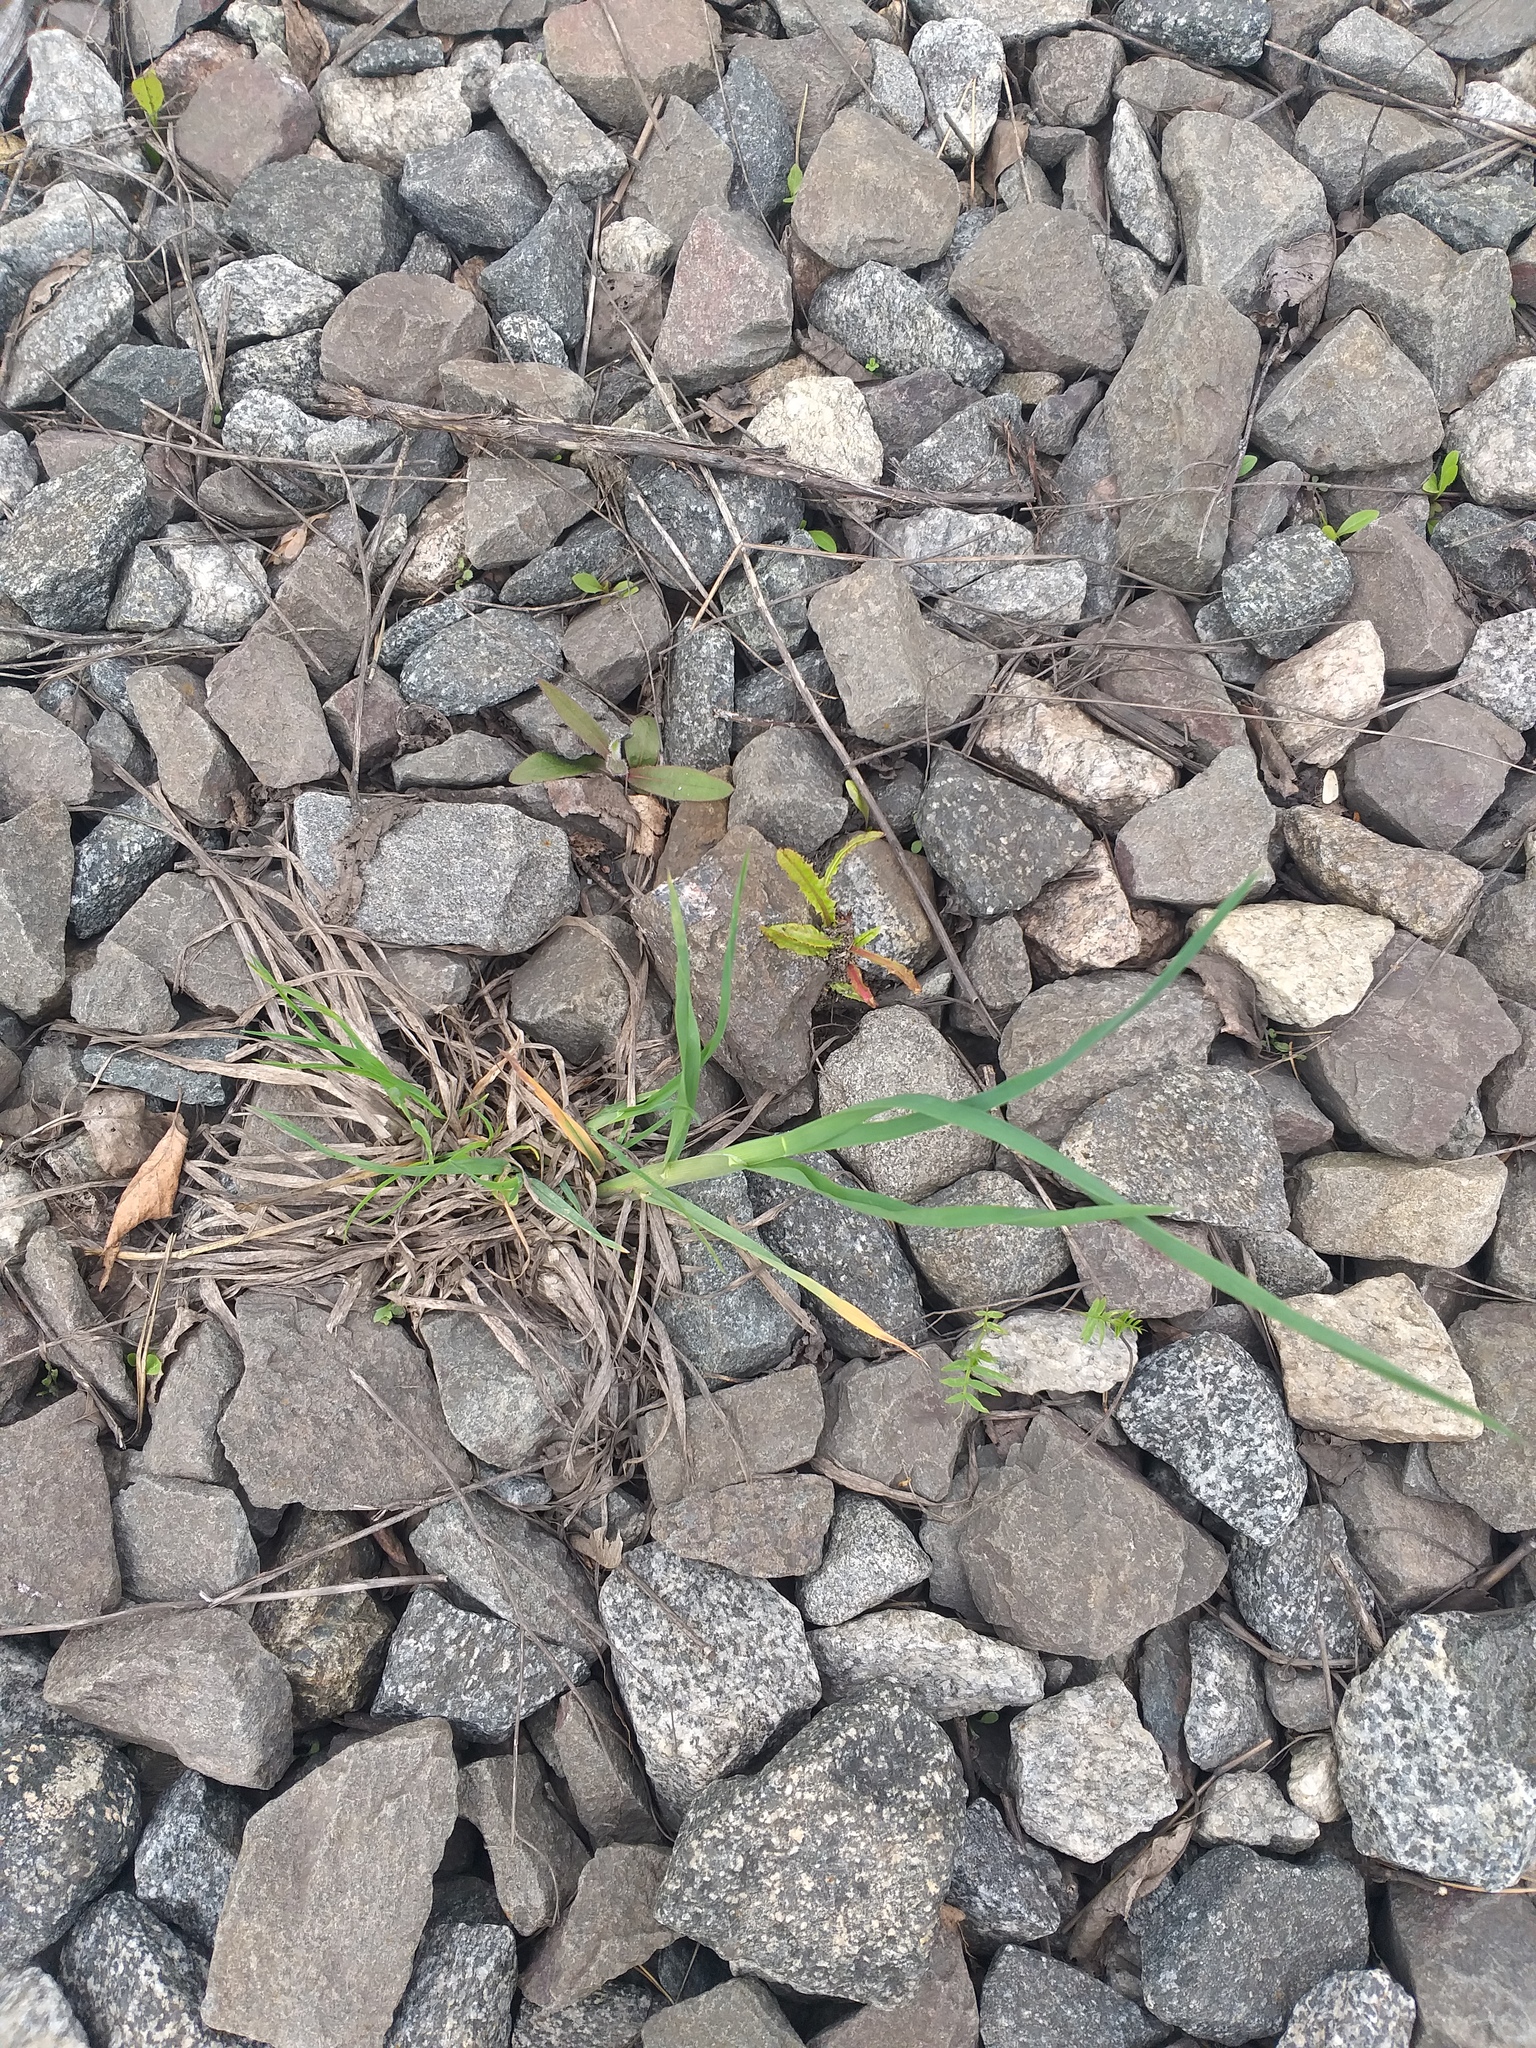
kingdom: Plantae
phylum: Tracheophyta
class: Liliopsida
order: Poales
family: Poaceae
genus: Dactylis
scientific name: Dactylis glomerata
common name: Orchardgrass
